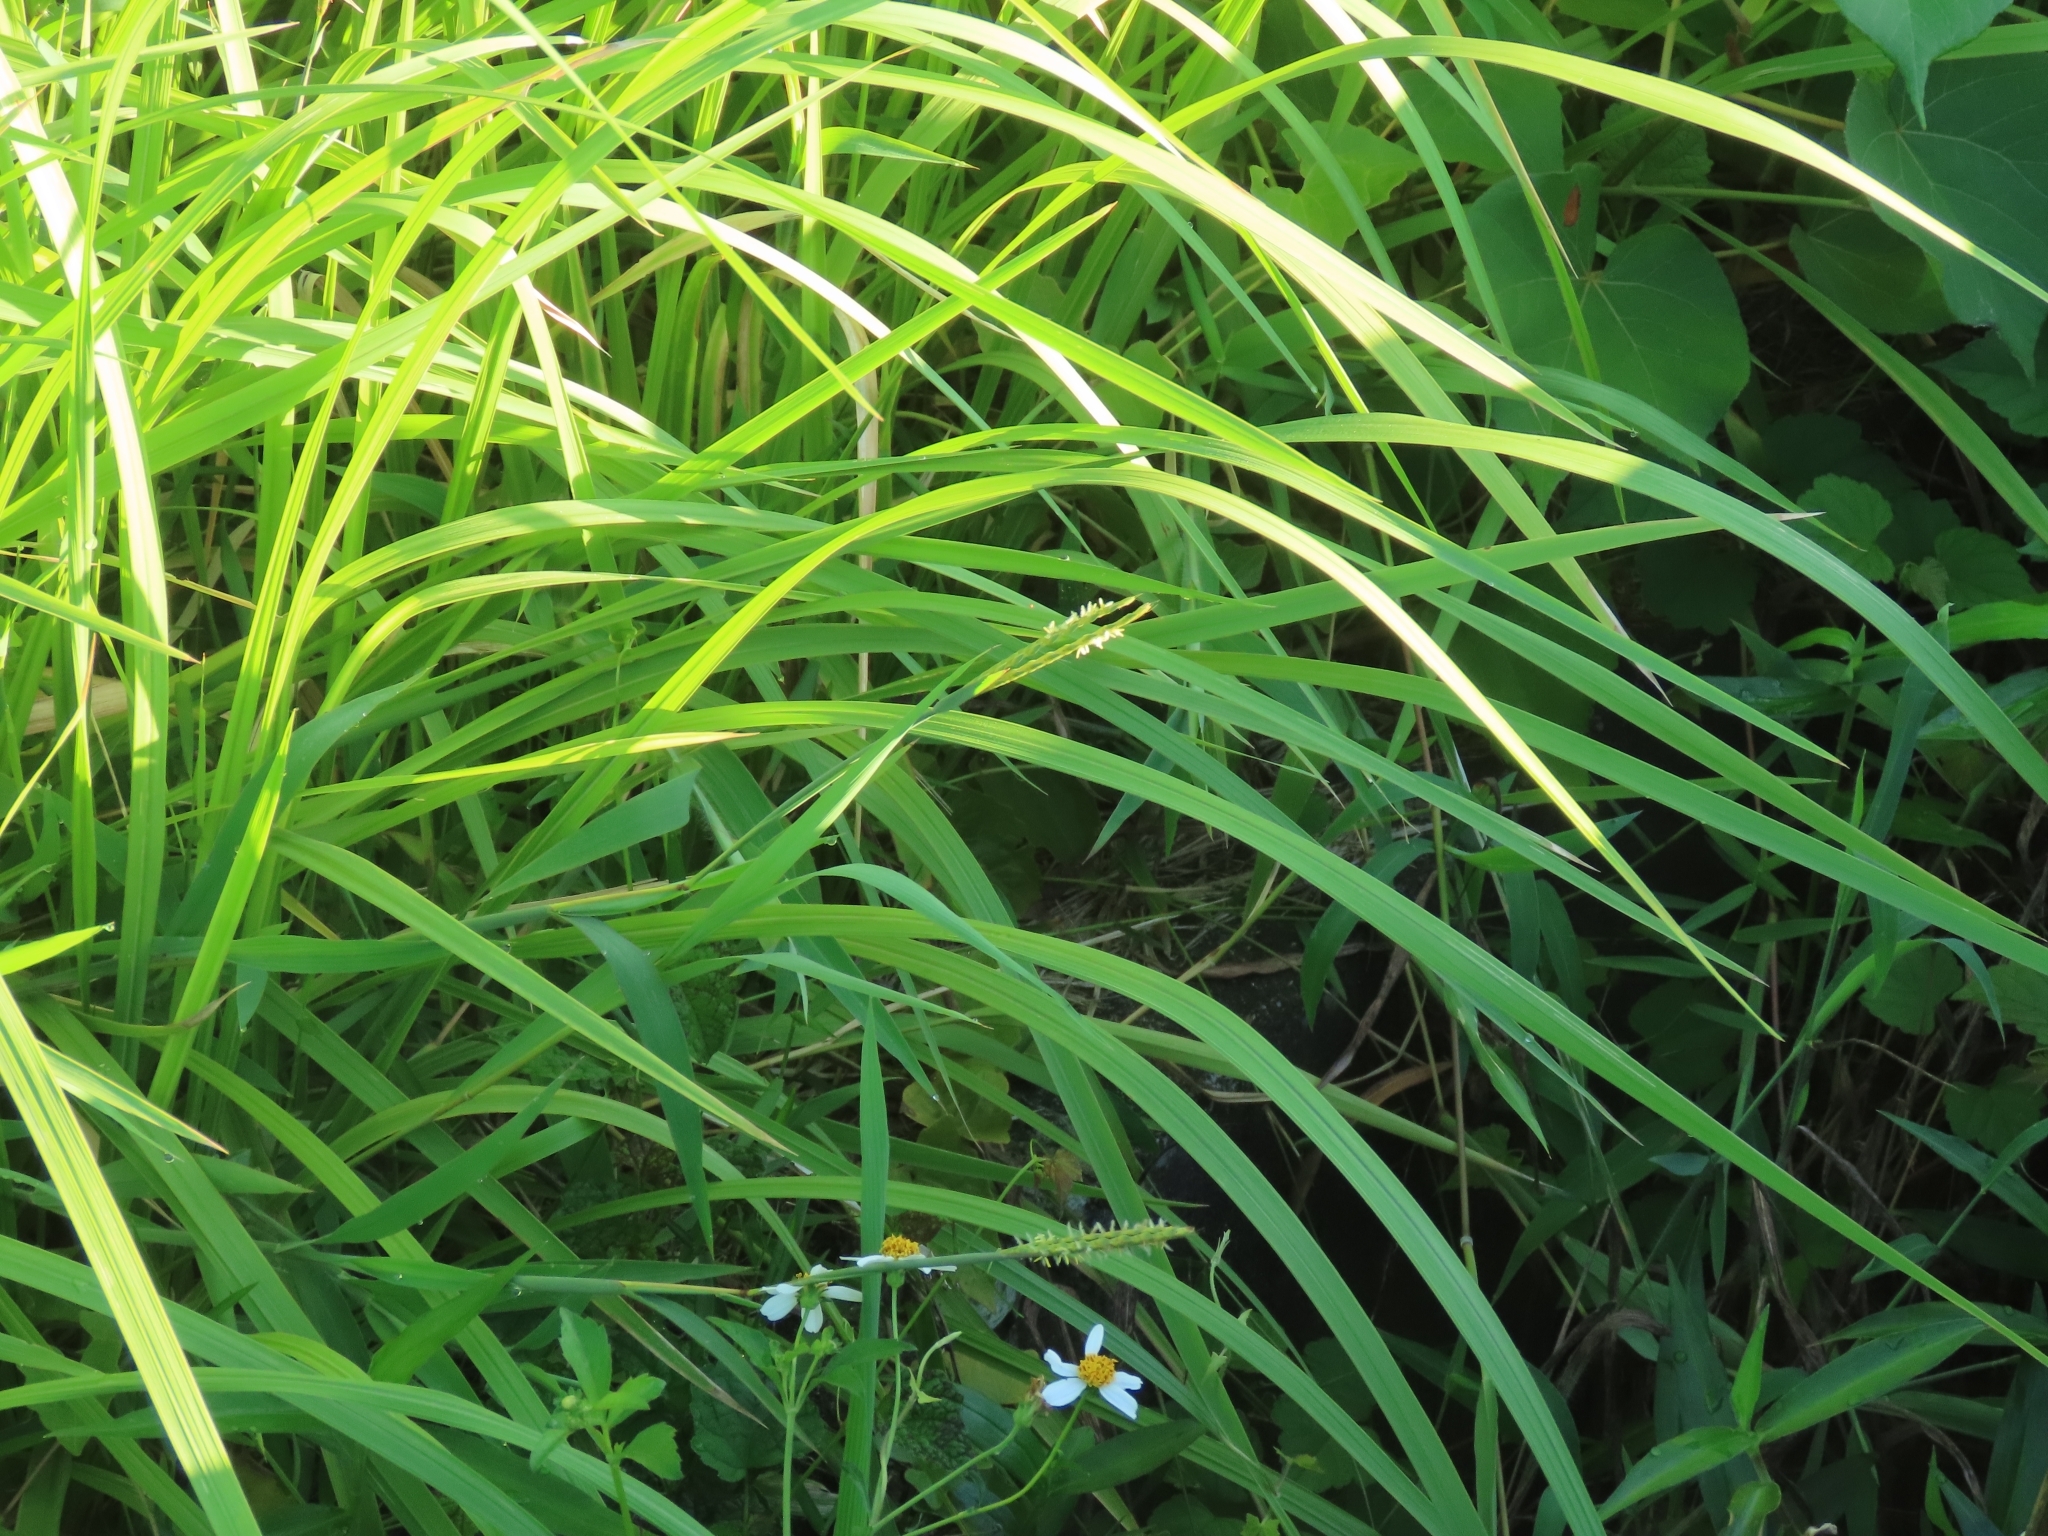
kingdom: Plantae
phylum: Tracheophyta
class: Liliopsida
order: Poales
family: Poaceae
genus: Ischaemum
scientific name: Ischaemum setaceum
